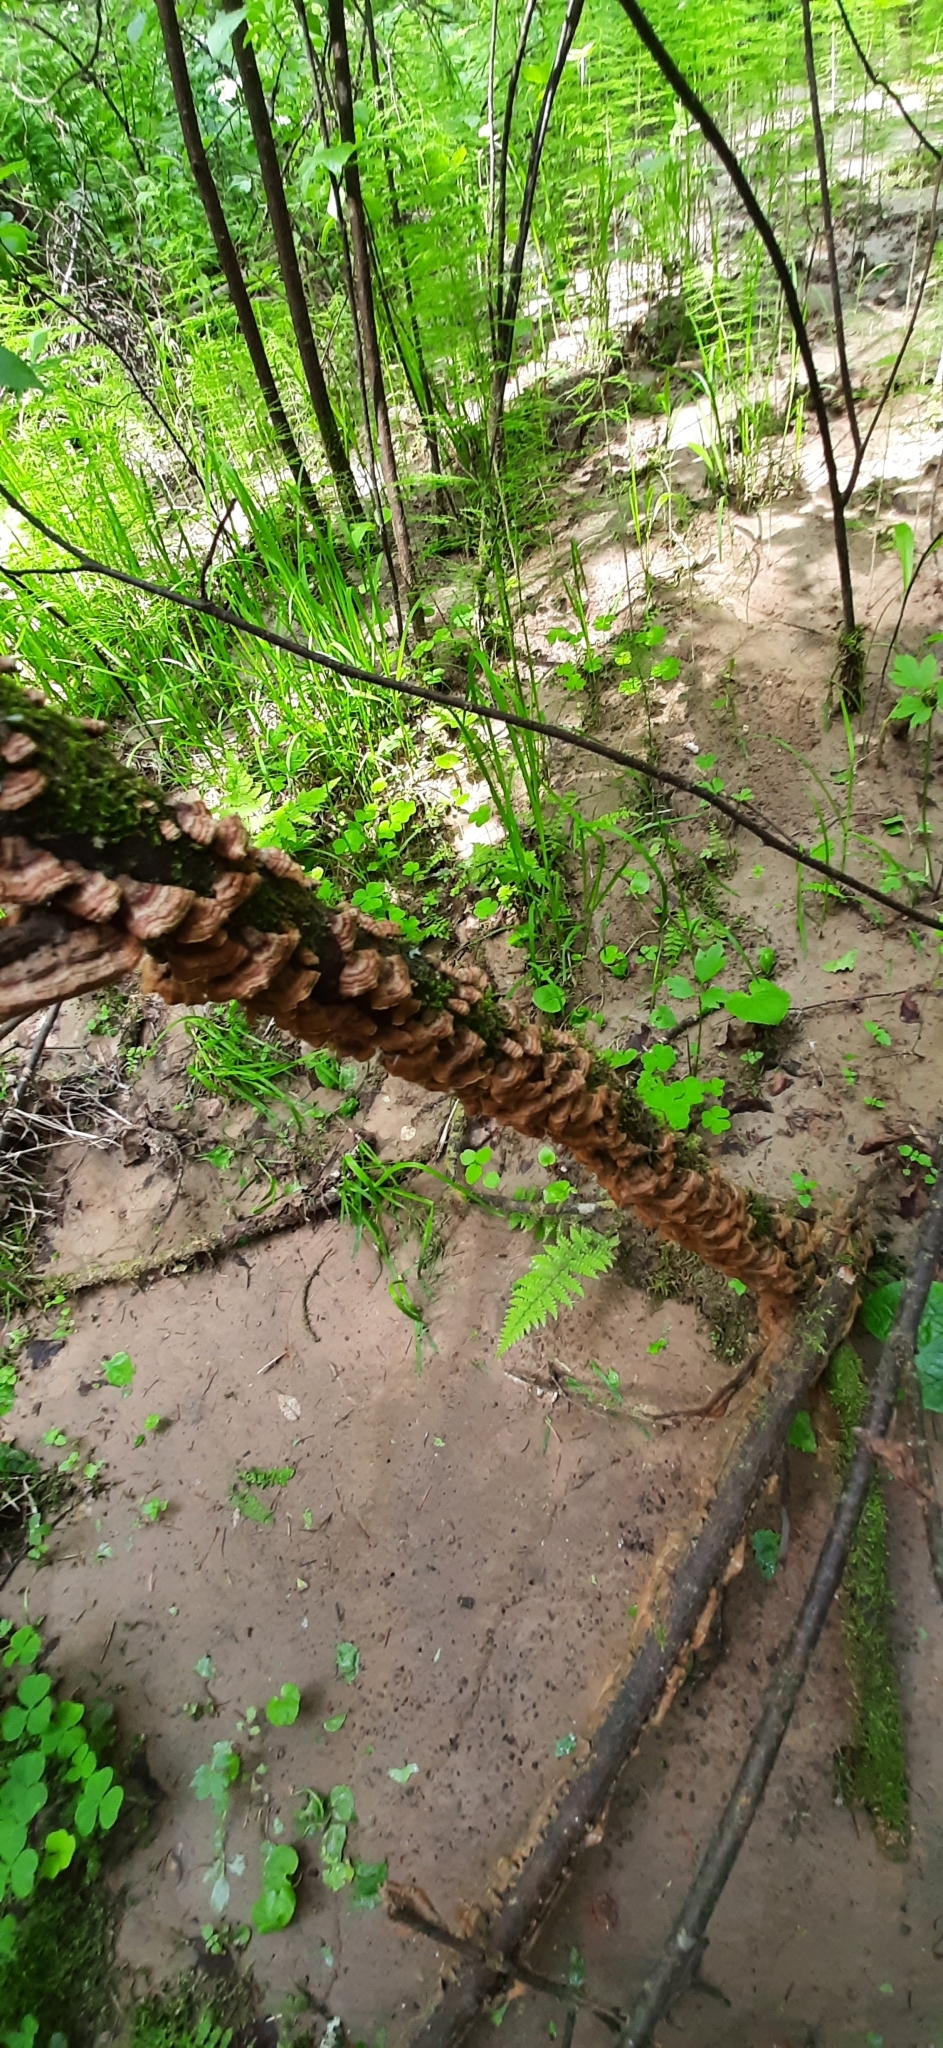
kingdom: Fungi
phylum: Basidiomycota
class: Agaricomycetes
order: Hymenochaetales
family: Hymenochaetaceae
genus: Hydnoporia
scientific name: Hydnoporia tabacina
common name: Willow glue
